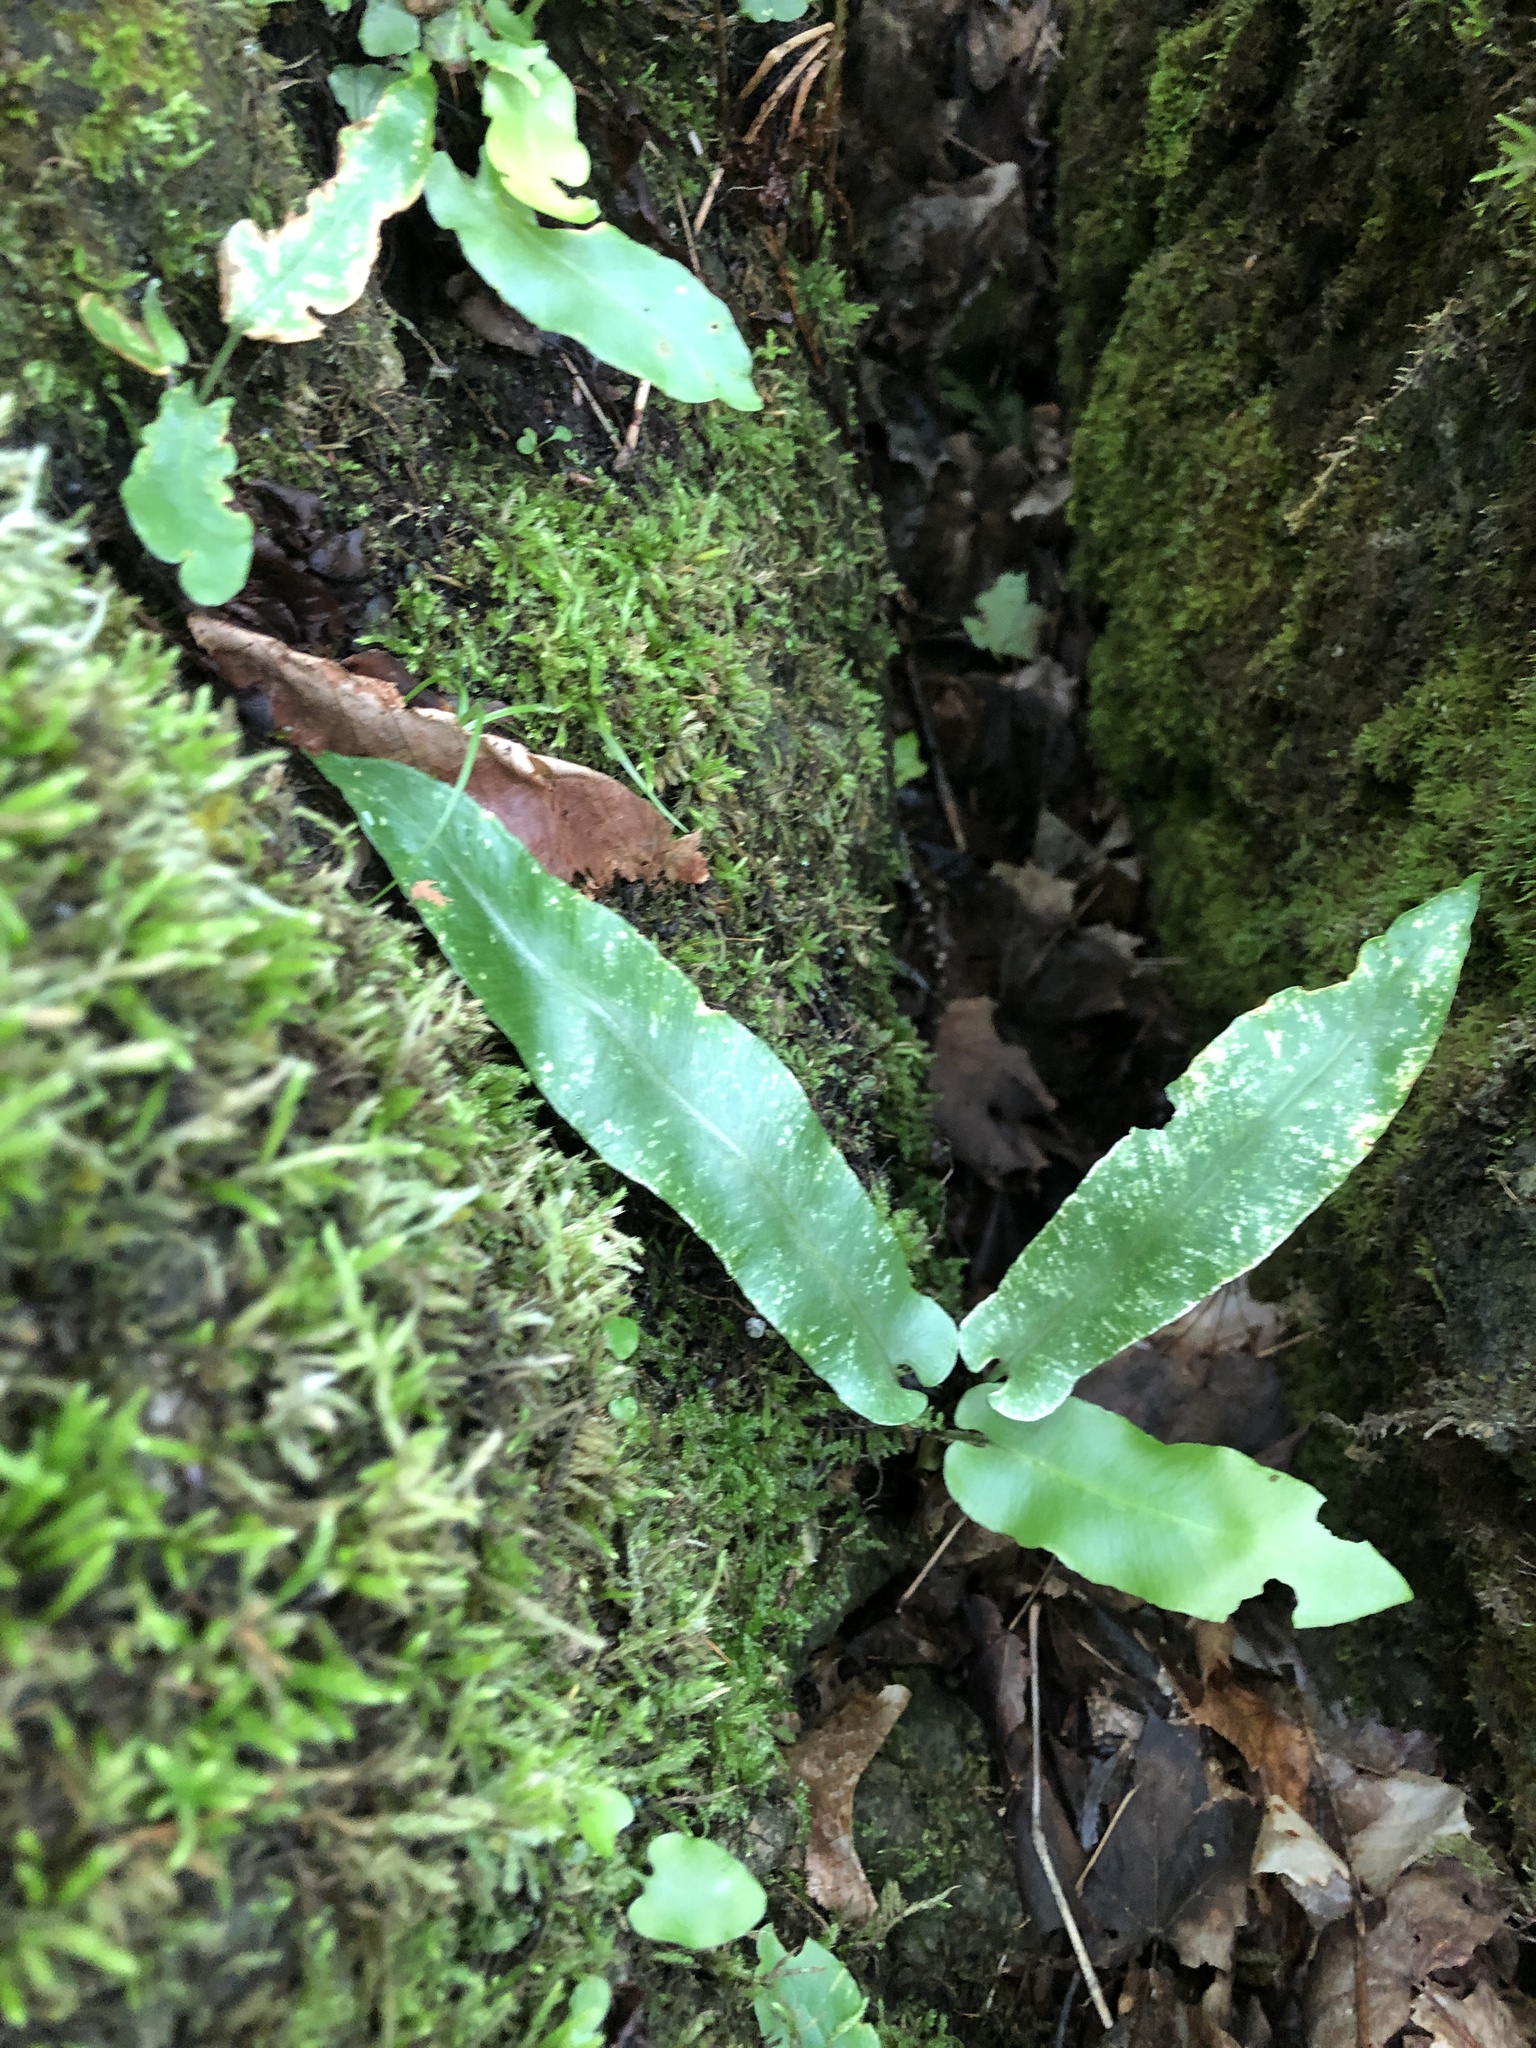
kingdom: Plantae
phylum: Tracheophyta
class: Polypodiopsida
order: Polypodiales
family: Aspleniaceae
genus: Asplenium
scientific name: Asplenium scolopendrium
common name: Hart's-tongue fern
